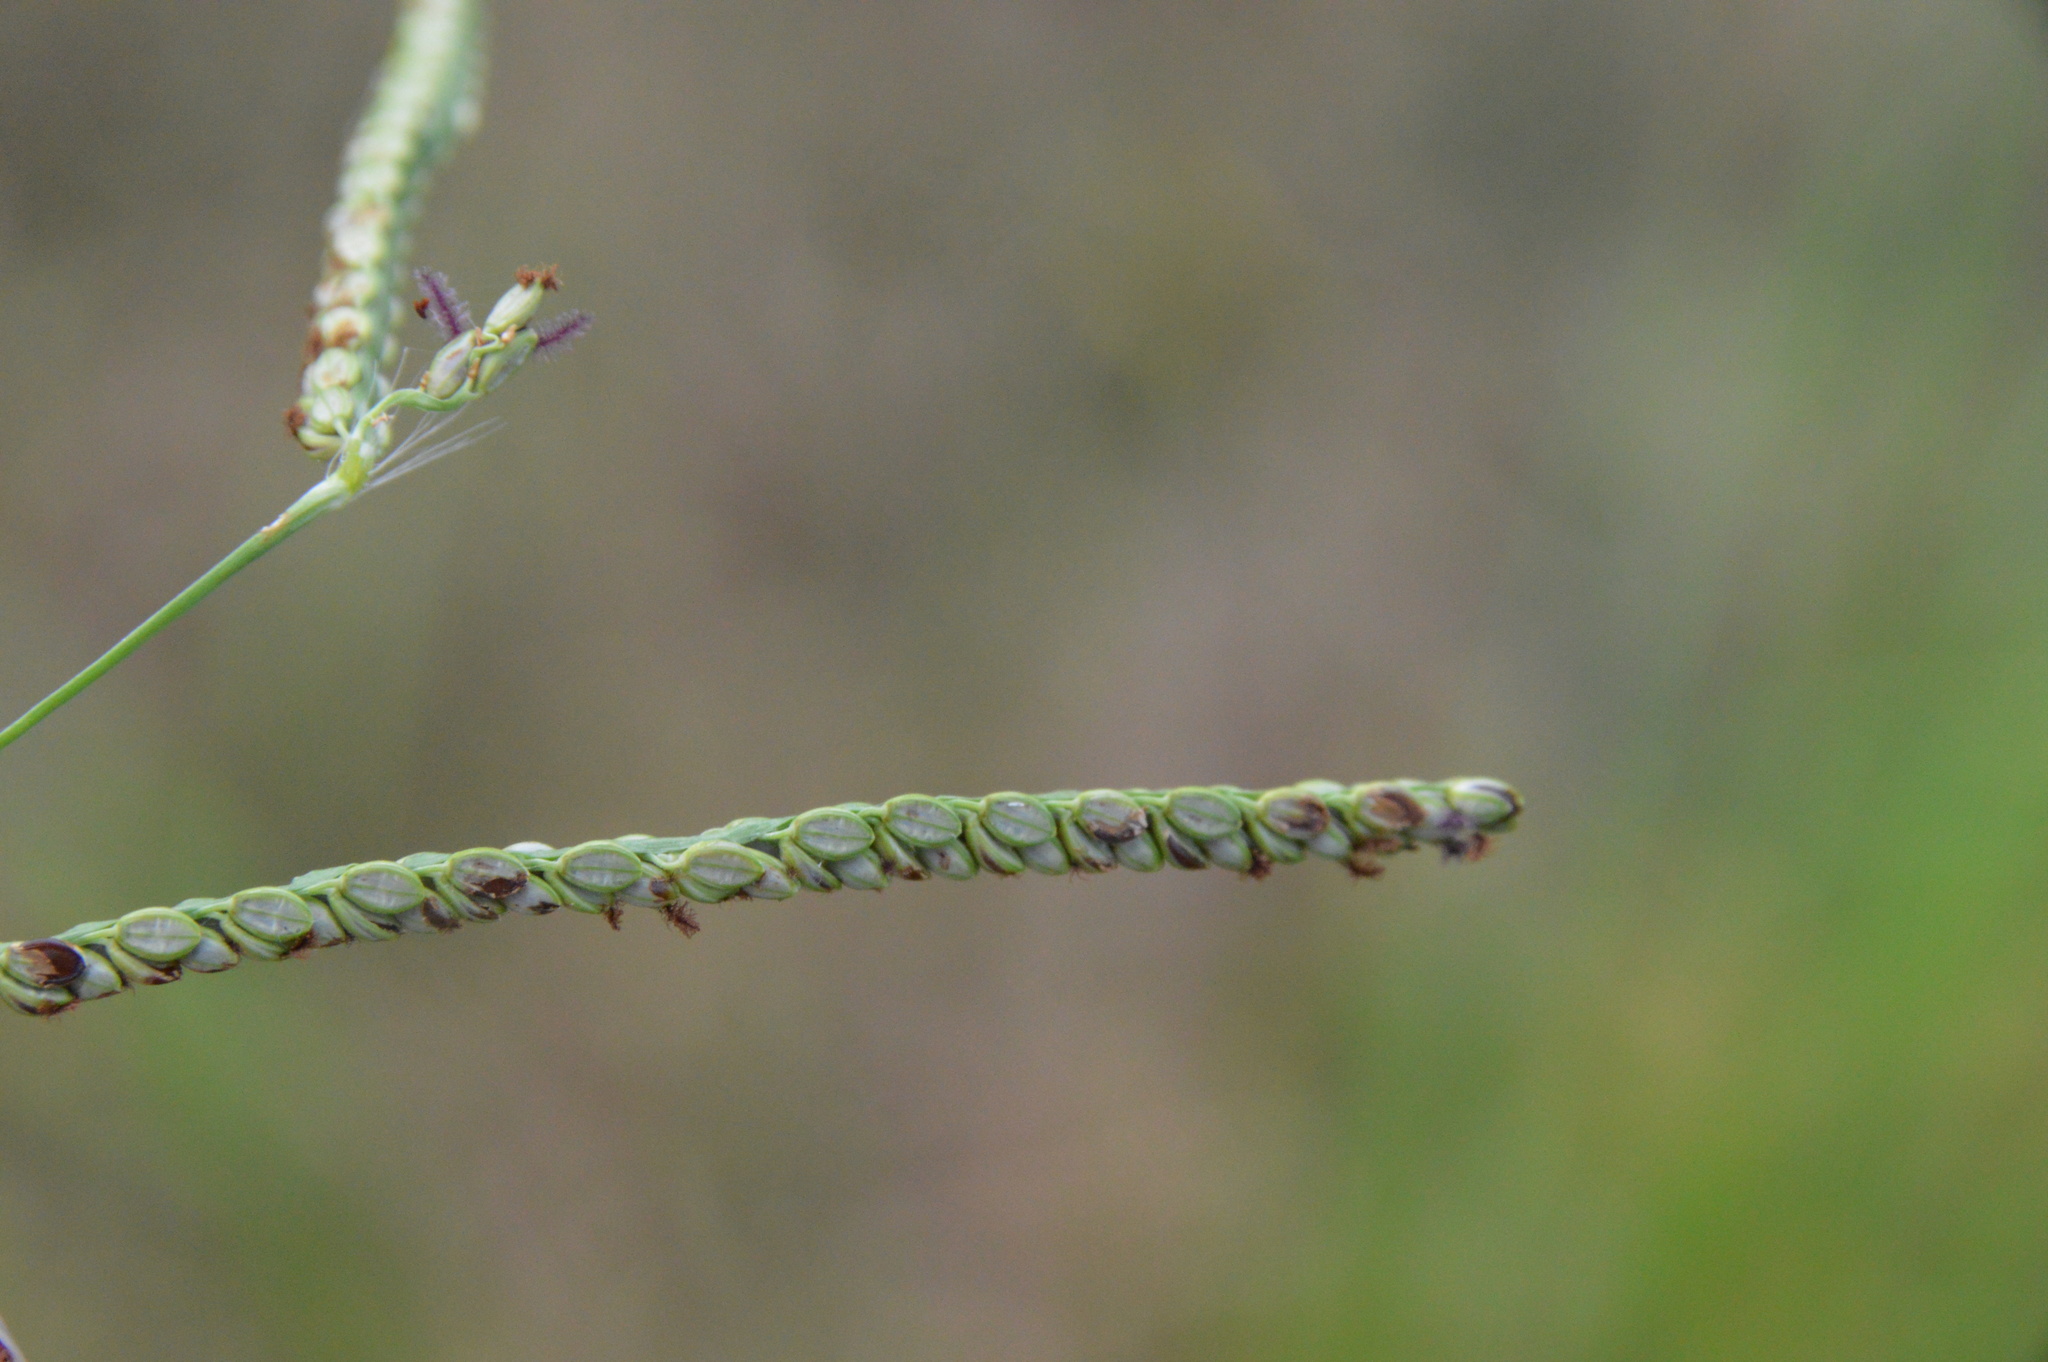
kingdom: Plantae
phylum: Tracheophyta
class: Liliopsida
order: Poales
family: Poaceae
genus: Paspalum
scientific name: Paspalum plicatulum
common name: Top paspalum
